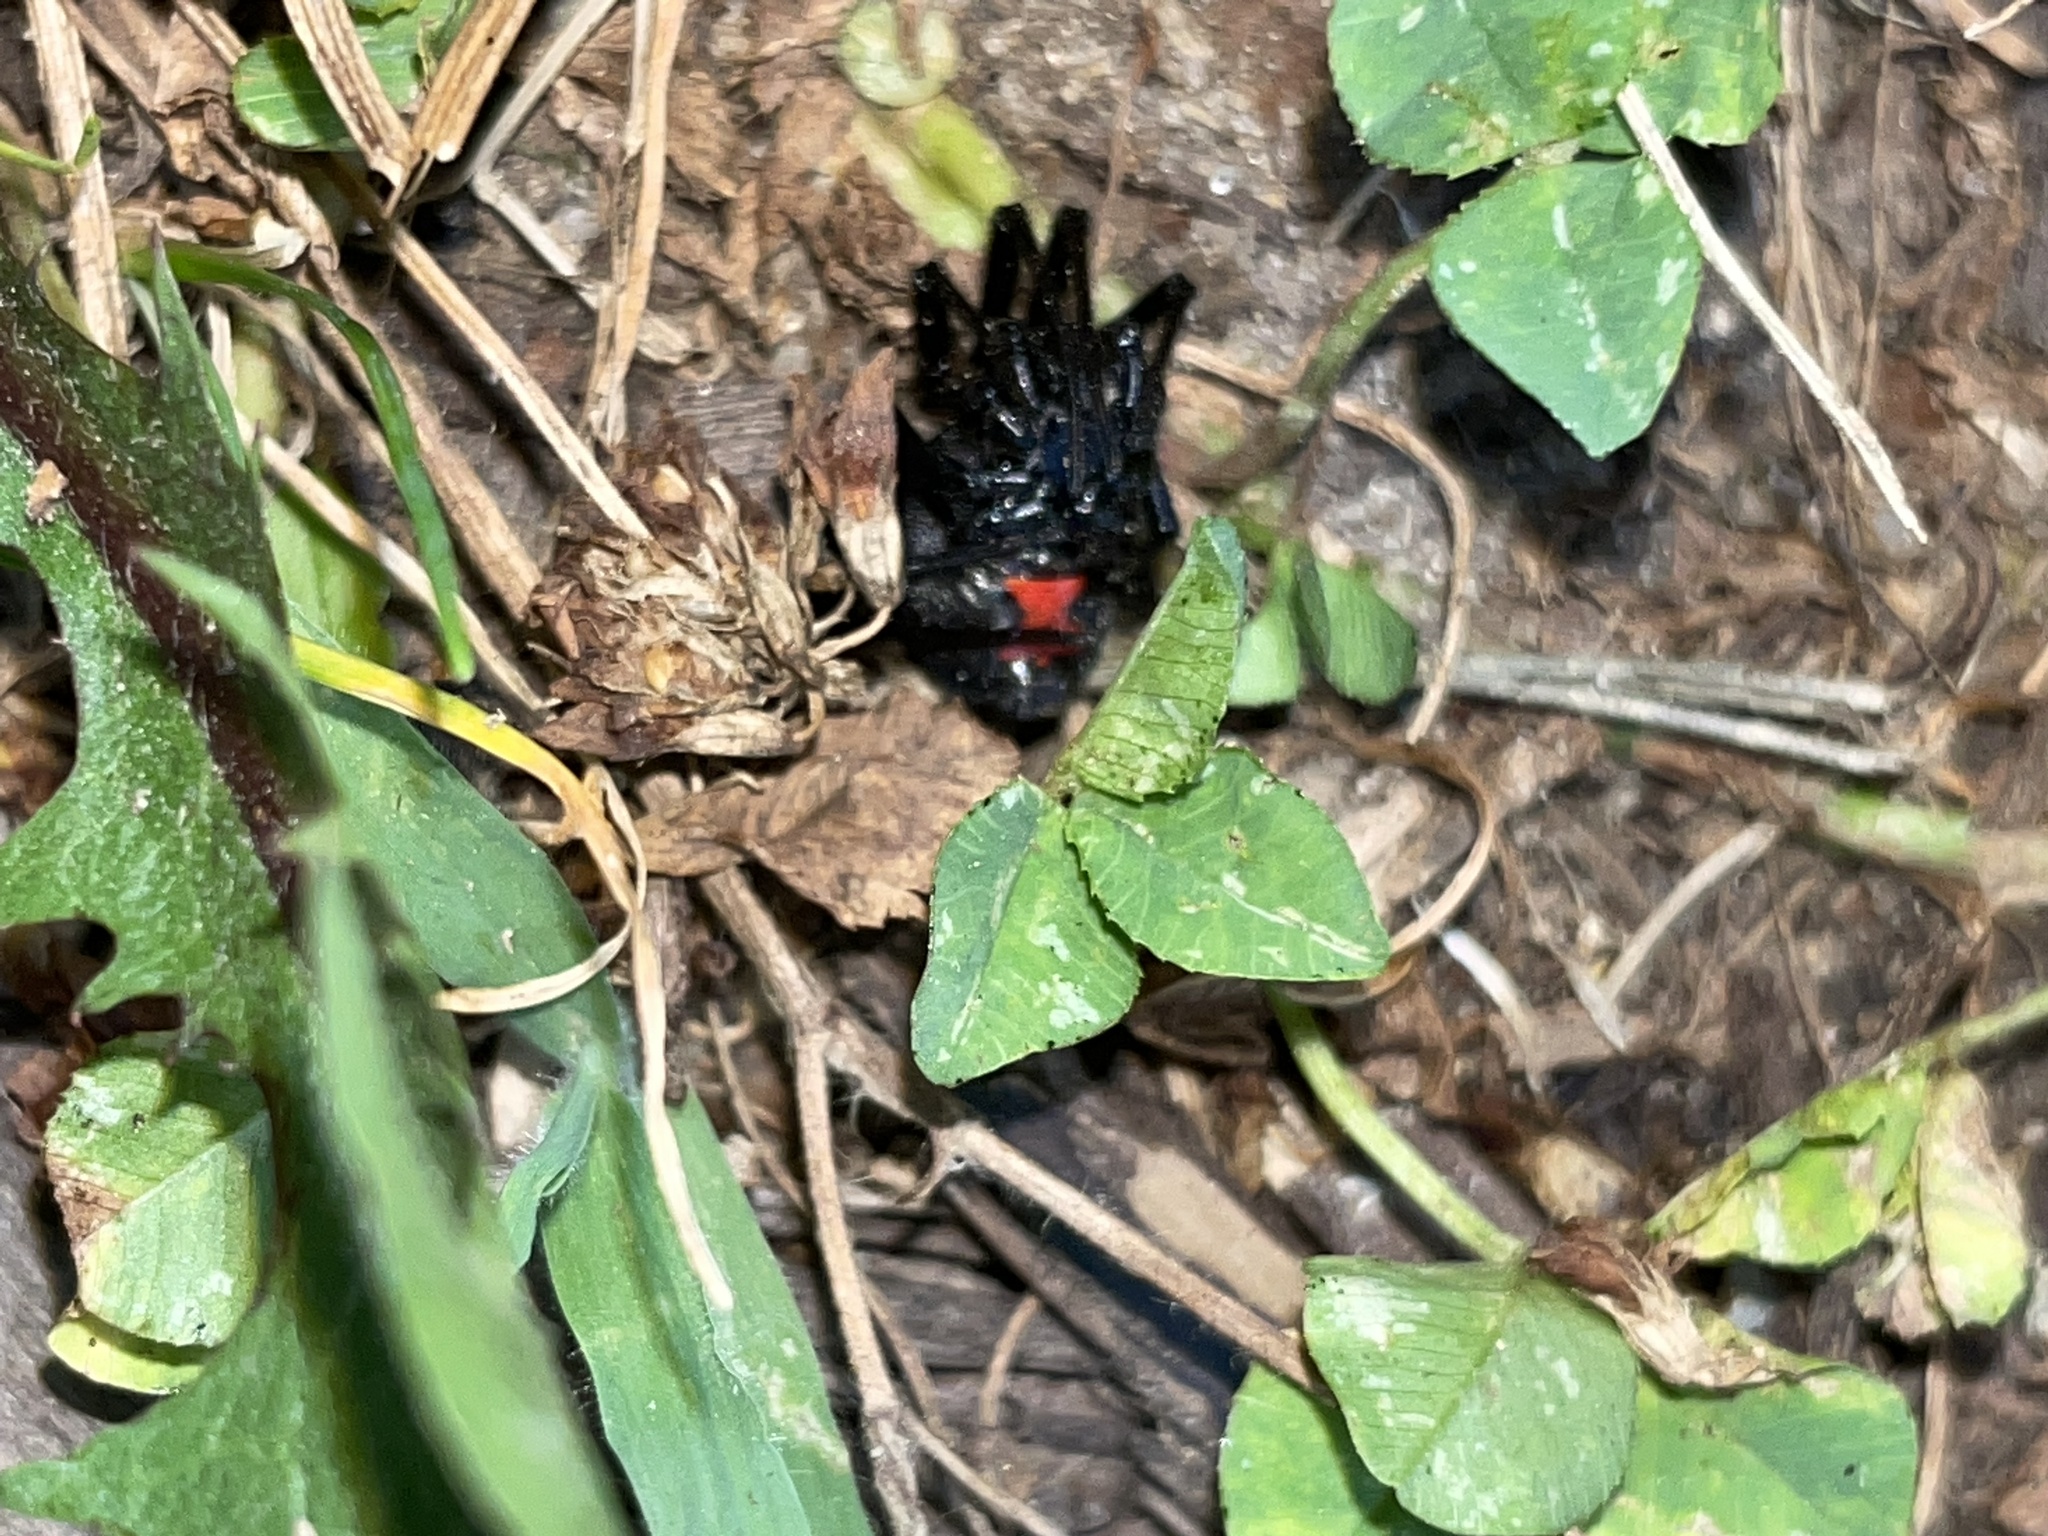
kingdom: Animalia
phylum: Arthropoda
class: Arachnida
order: Araneae
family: Theridiidae
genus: Latrodectus
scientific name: Latrodectus mactans
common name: Cobweb spiders
